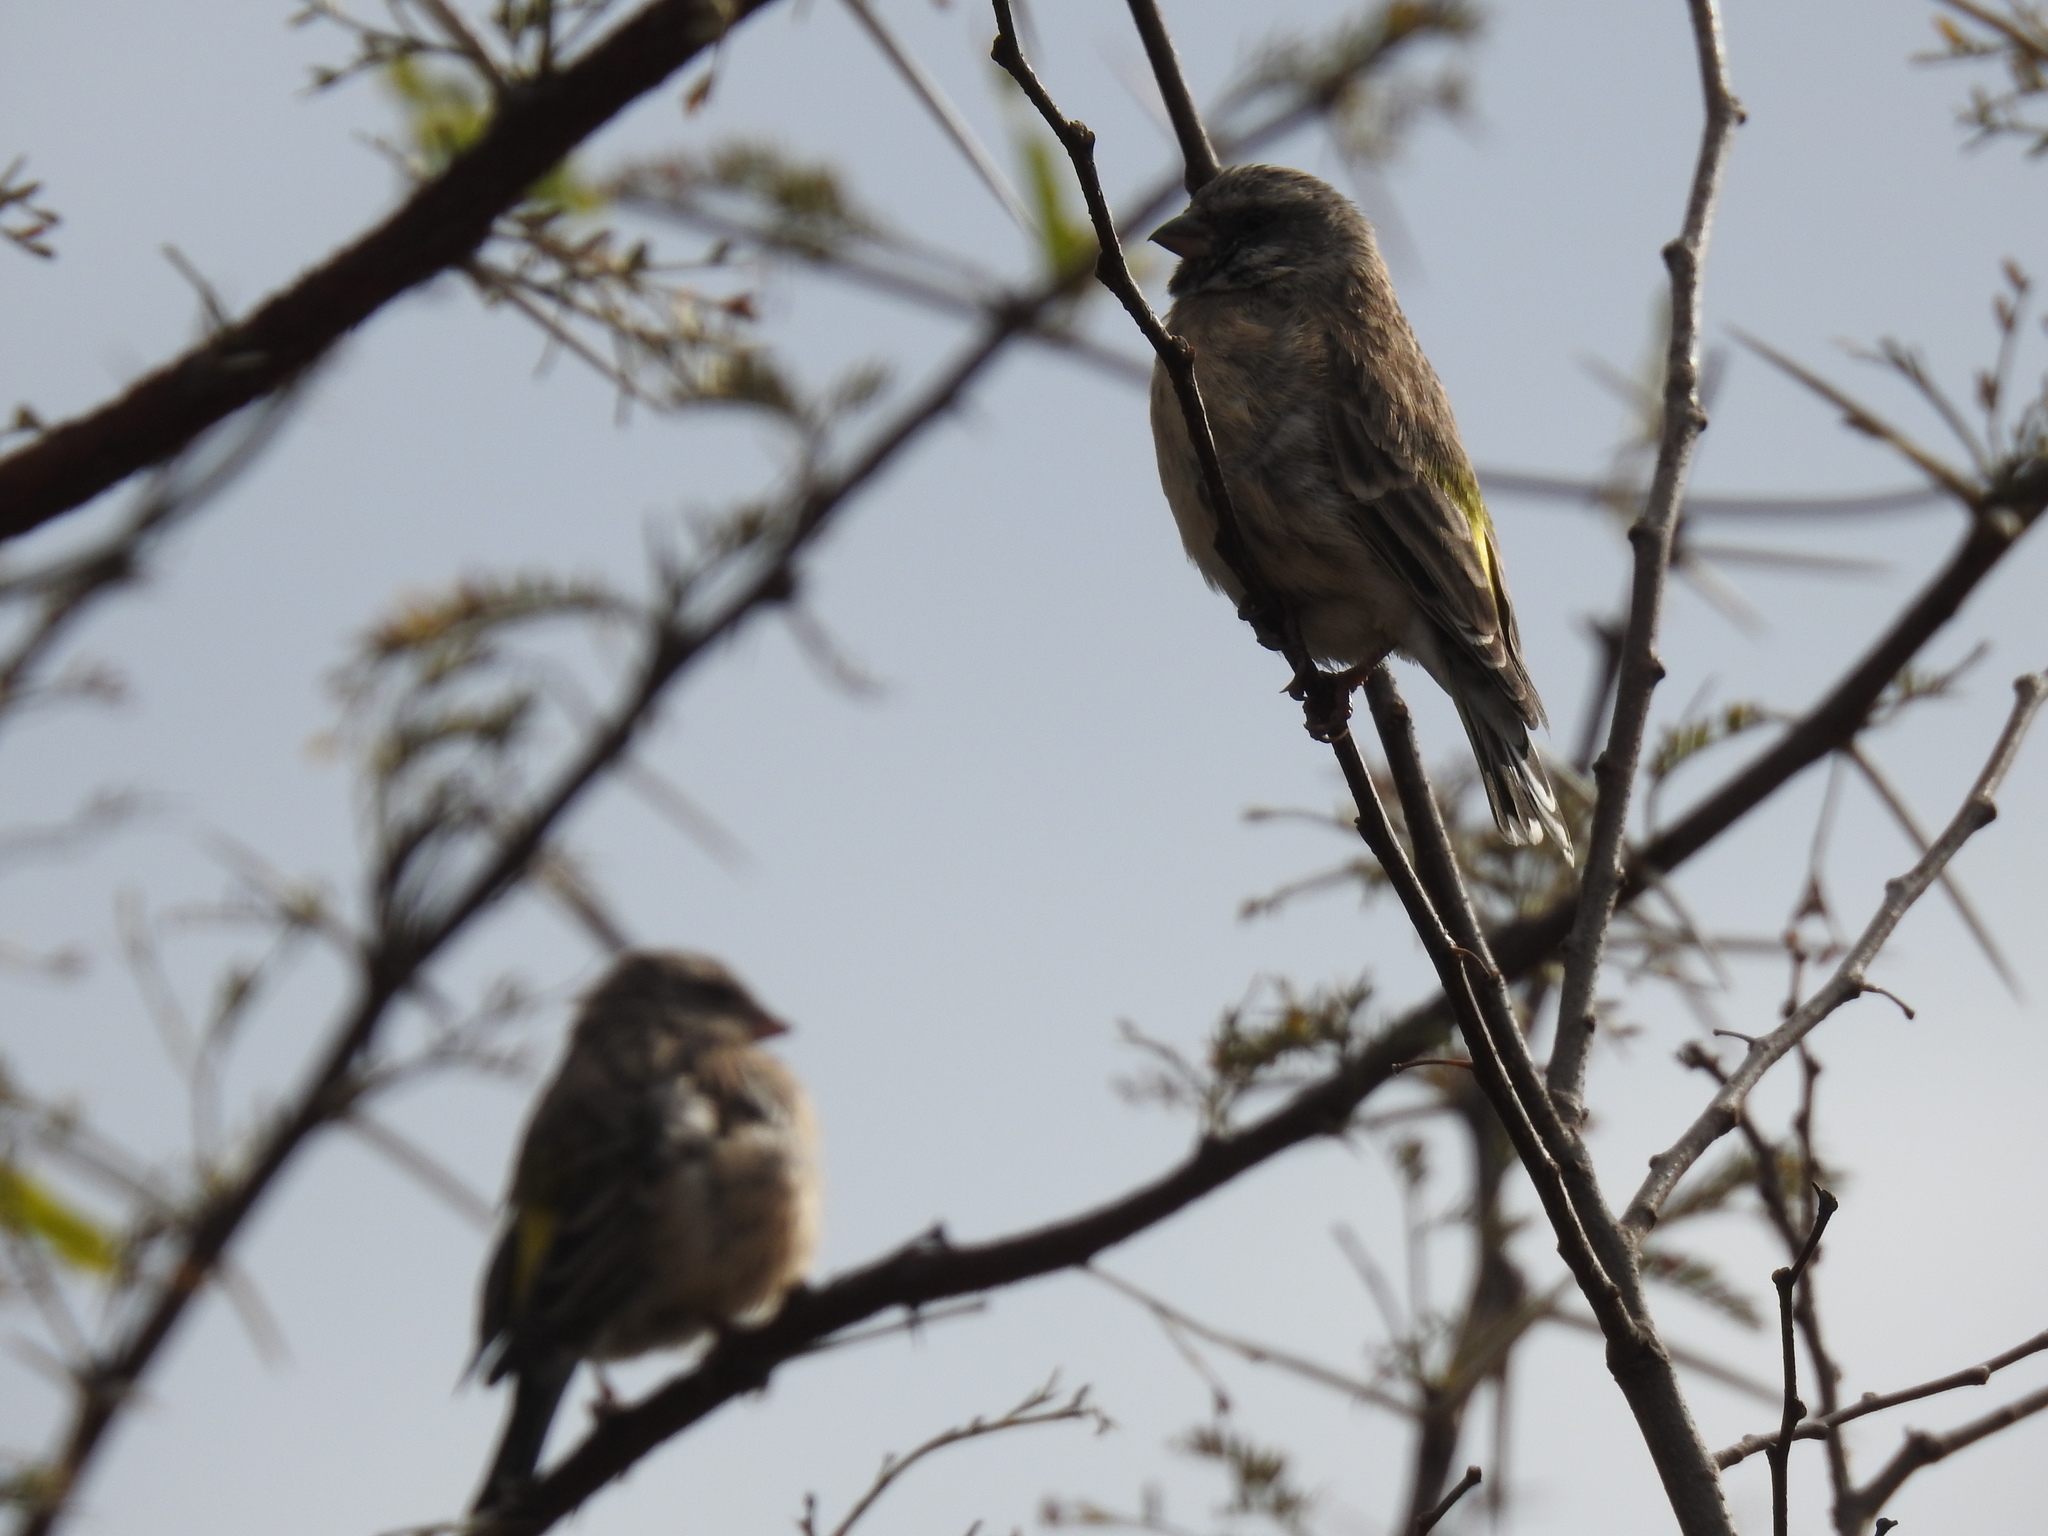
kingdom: Animalia
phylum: Chordata
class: Aves
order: Passeriformes
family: Fringillidae
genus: Crithagra
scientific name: Crithagra atrogularis
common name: Black-throated canary
